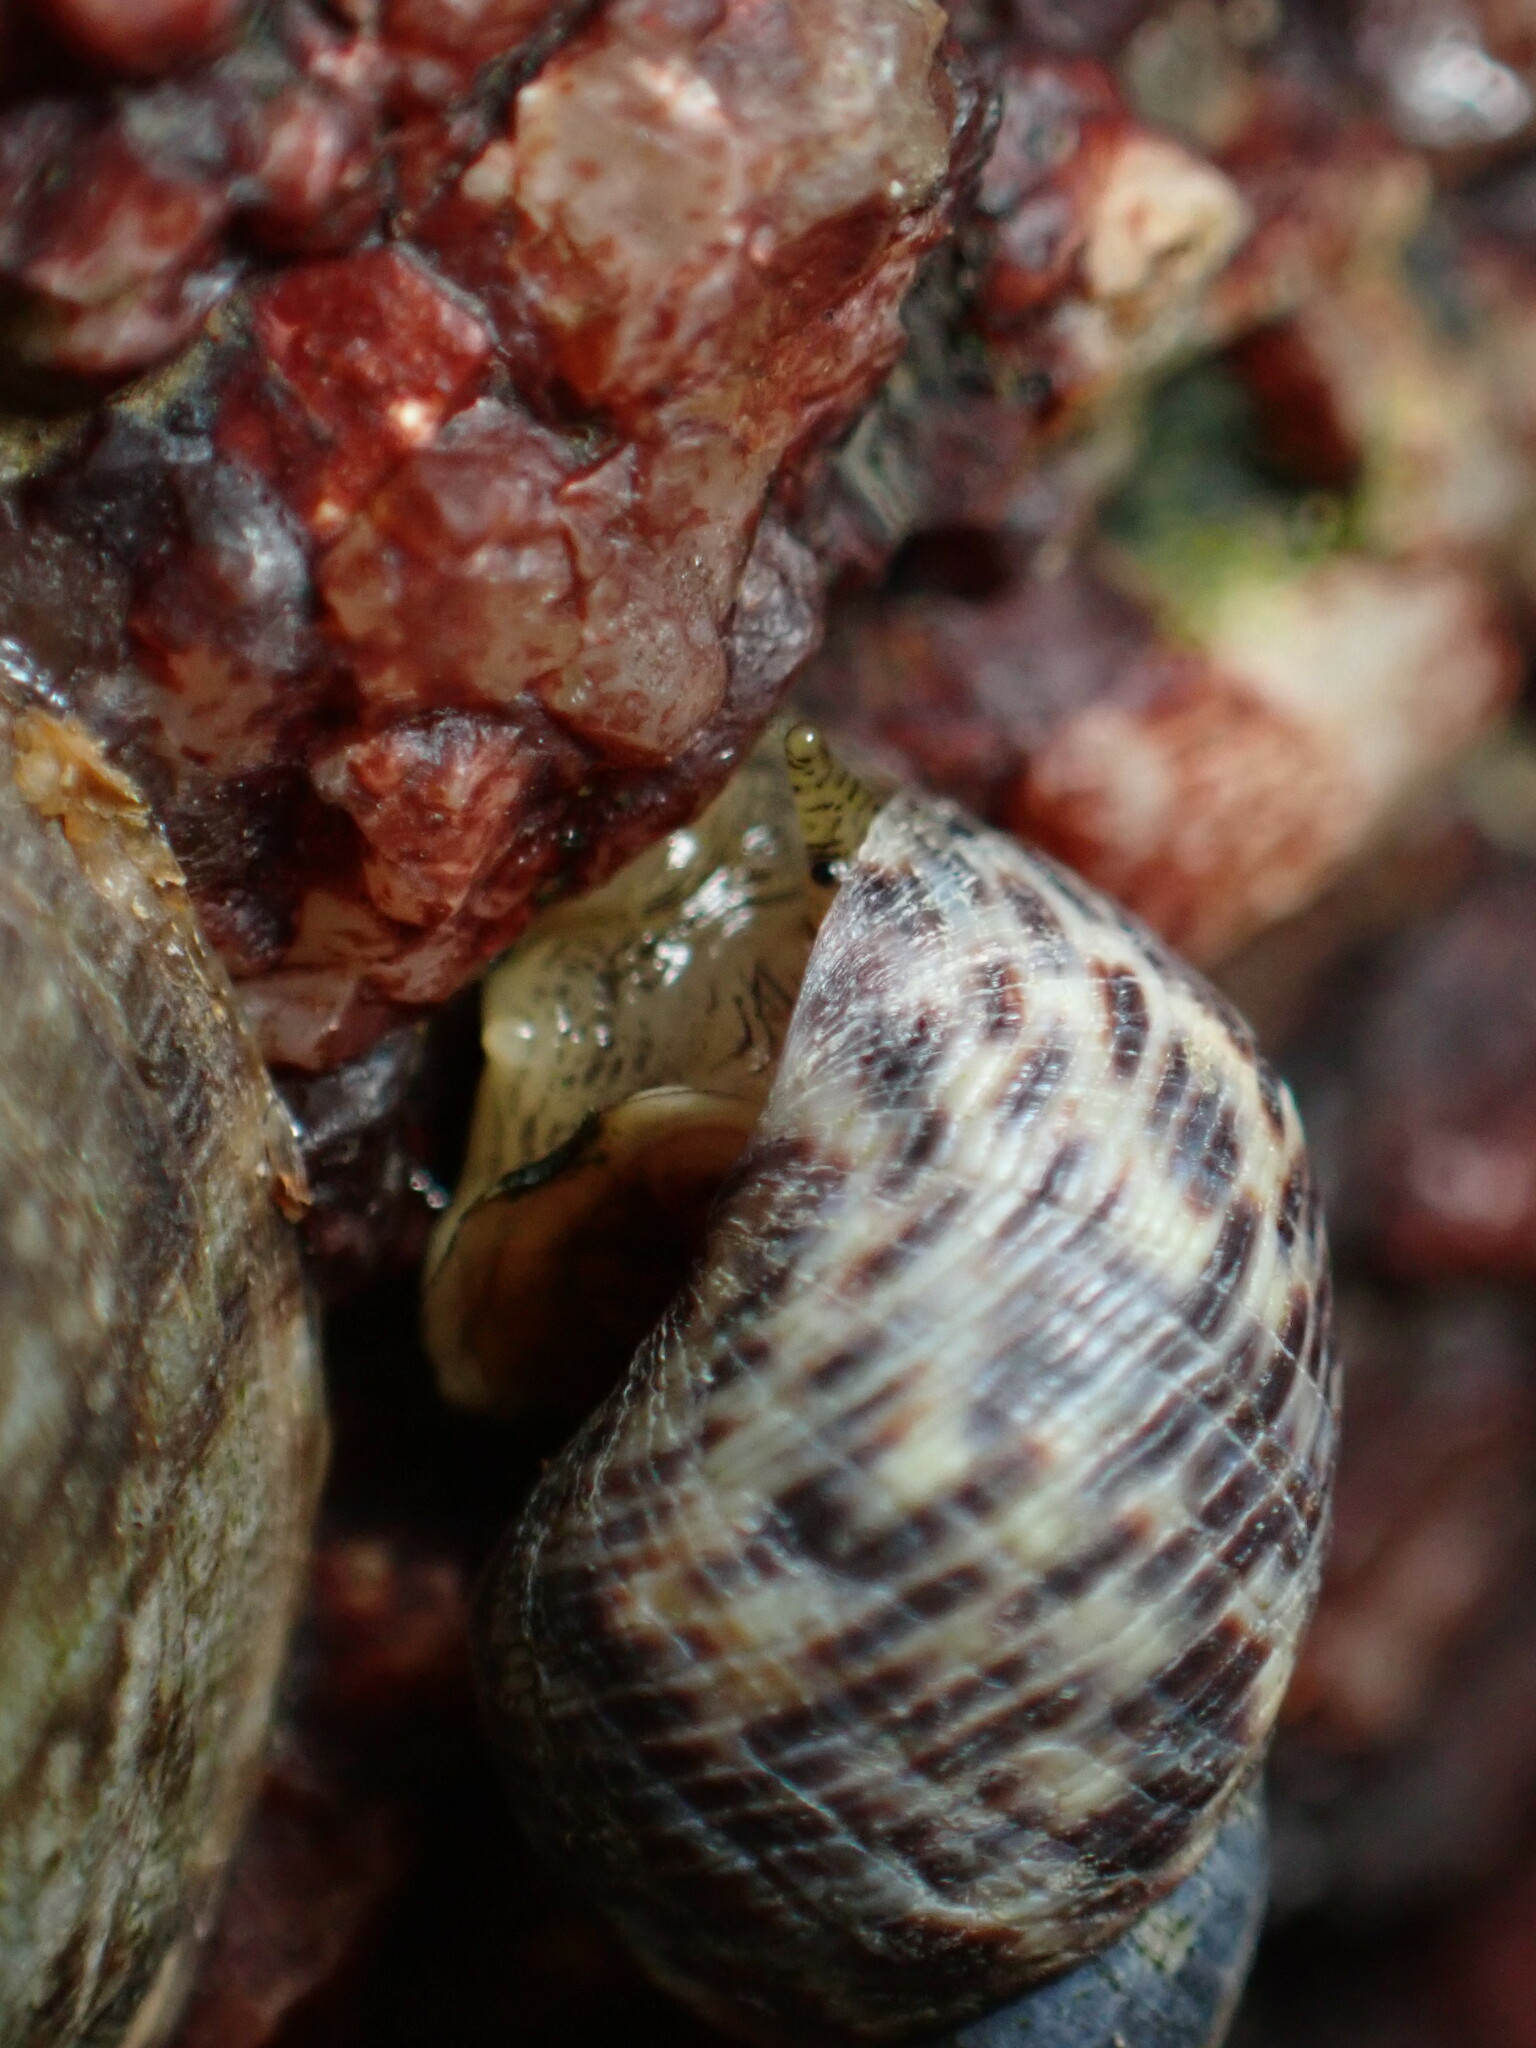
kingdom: Animalia
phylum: Mollusca
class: Gastropoda
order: Littorinimorpha
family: Littorinidae
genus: Littoraria
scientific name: Littoraria articulata
